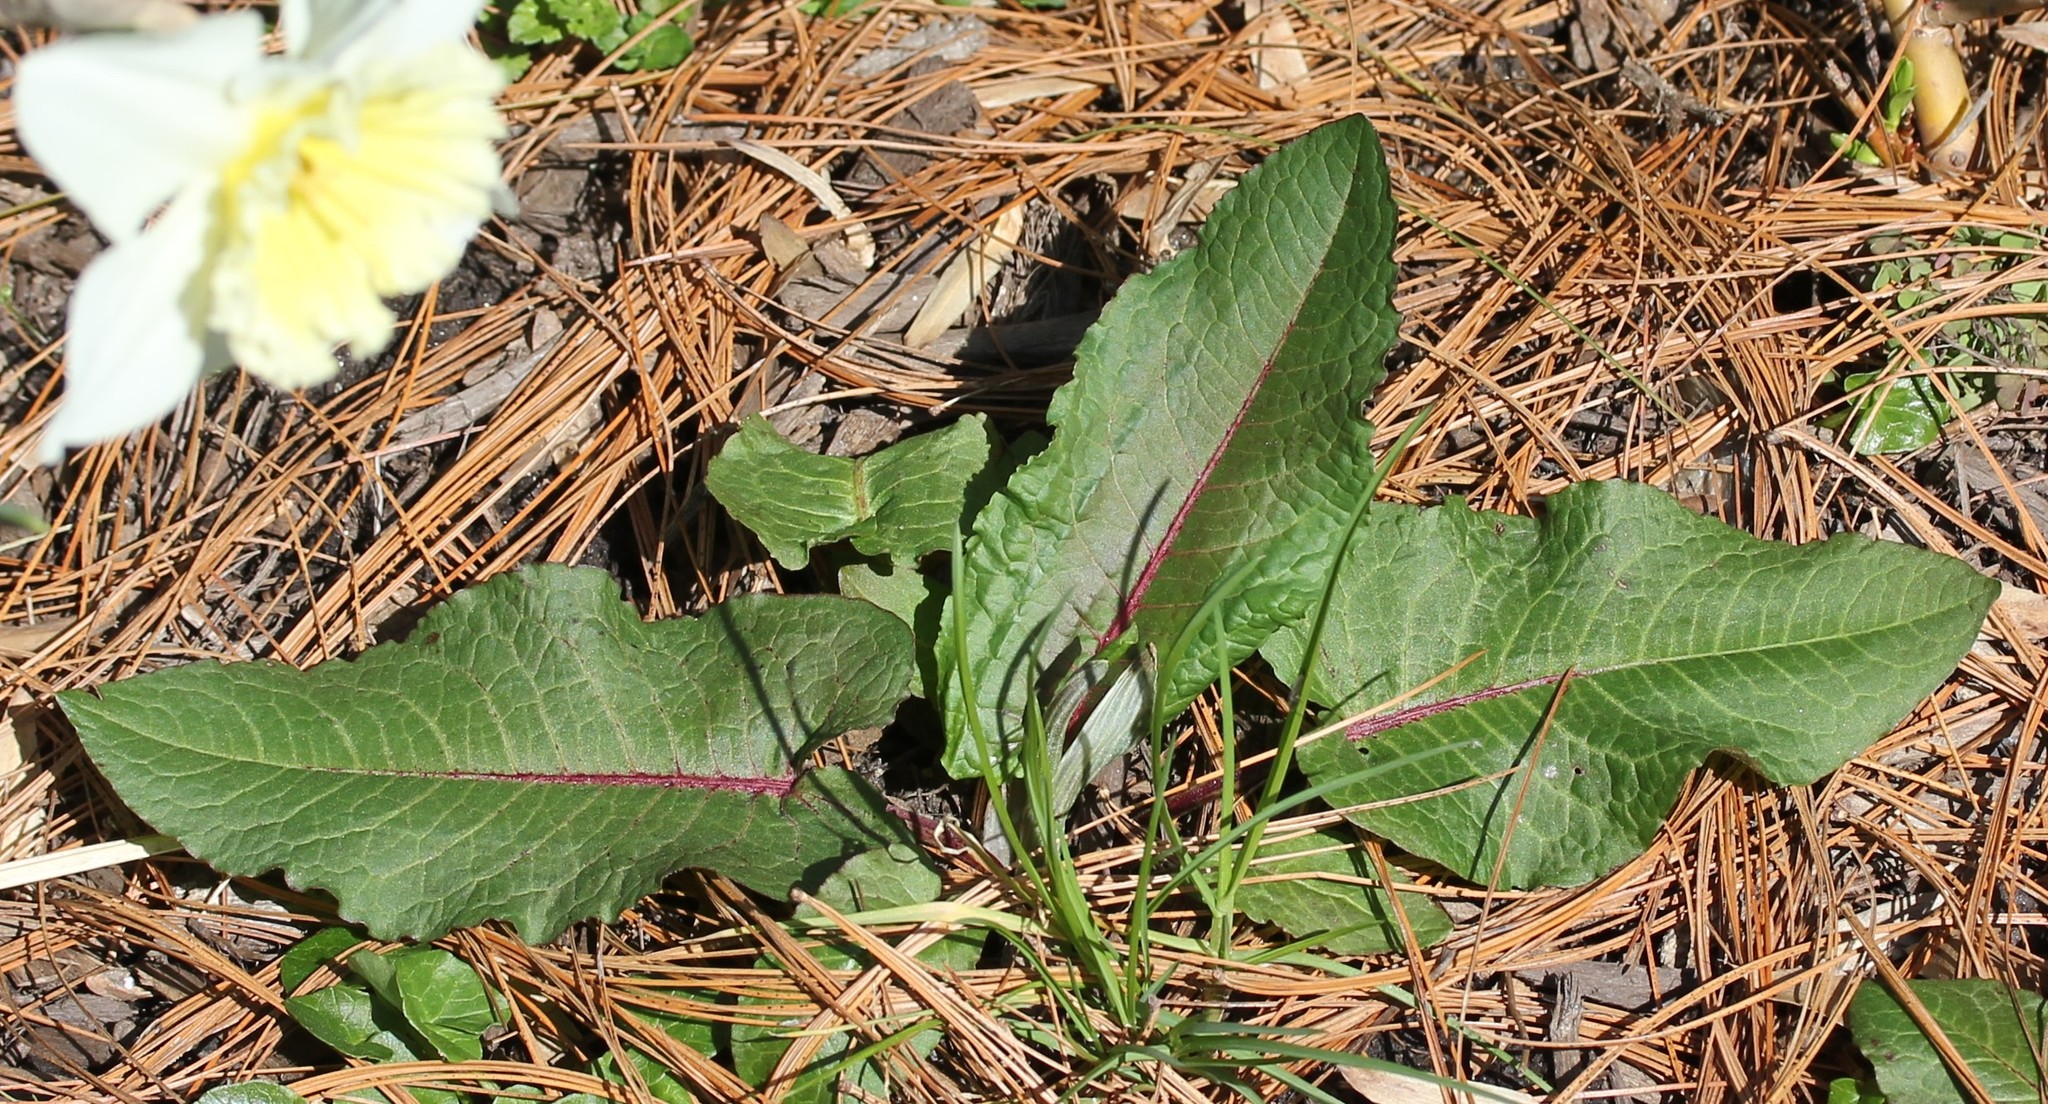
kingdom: Plantae
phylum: Tracheophyta
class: Magnoliopsida
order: Caryophyllales
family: Polygonaceae
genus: Rumex
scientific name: Rumex obtusifolius
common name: Bitter dock
